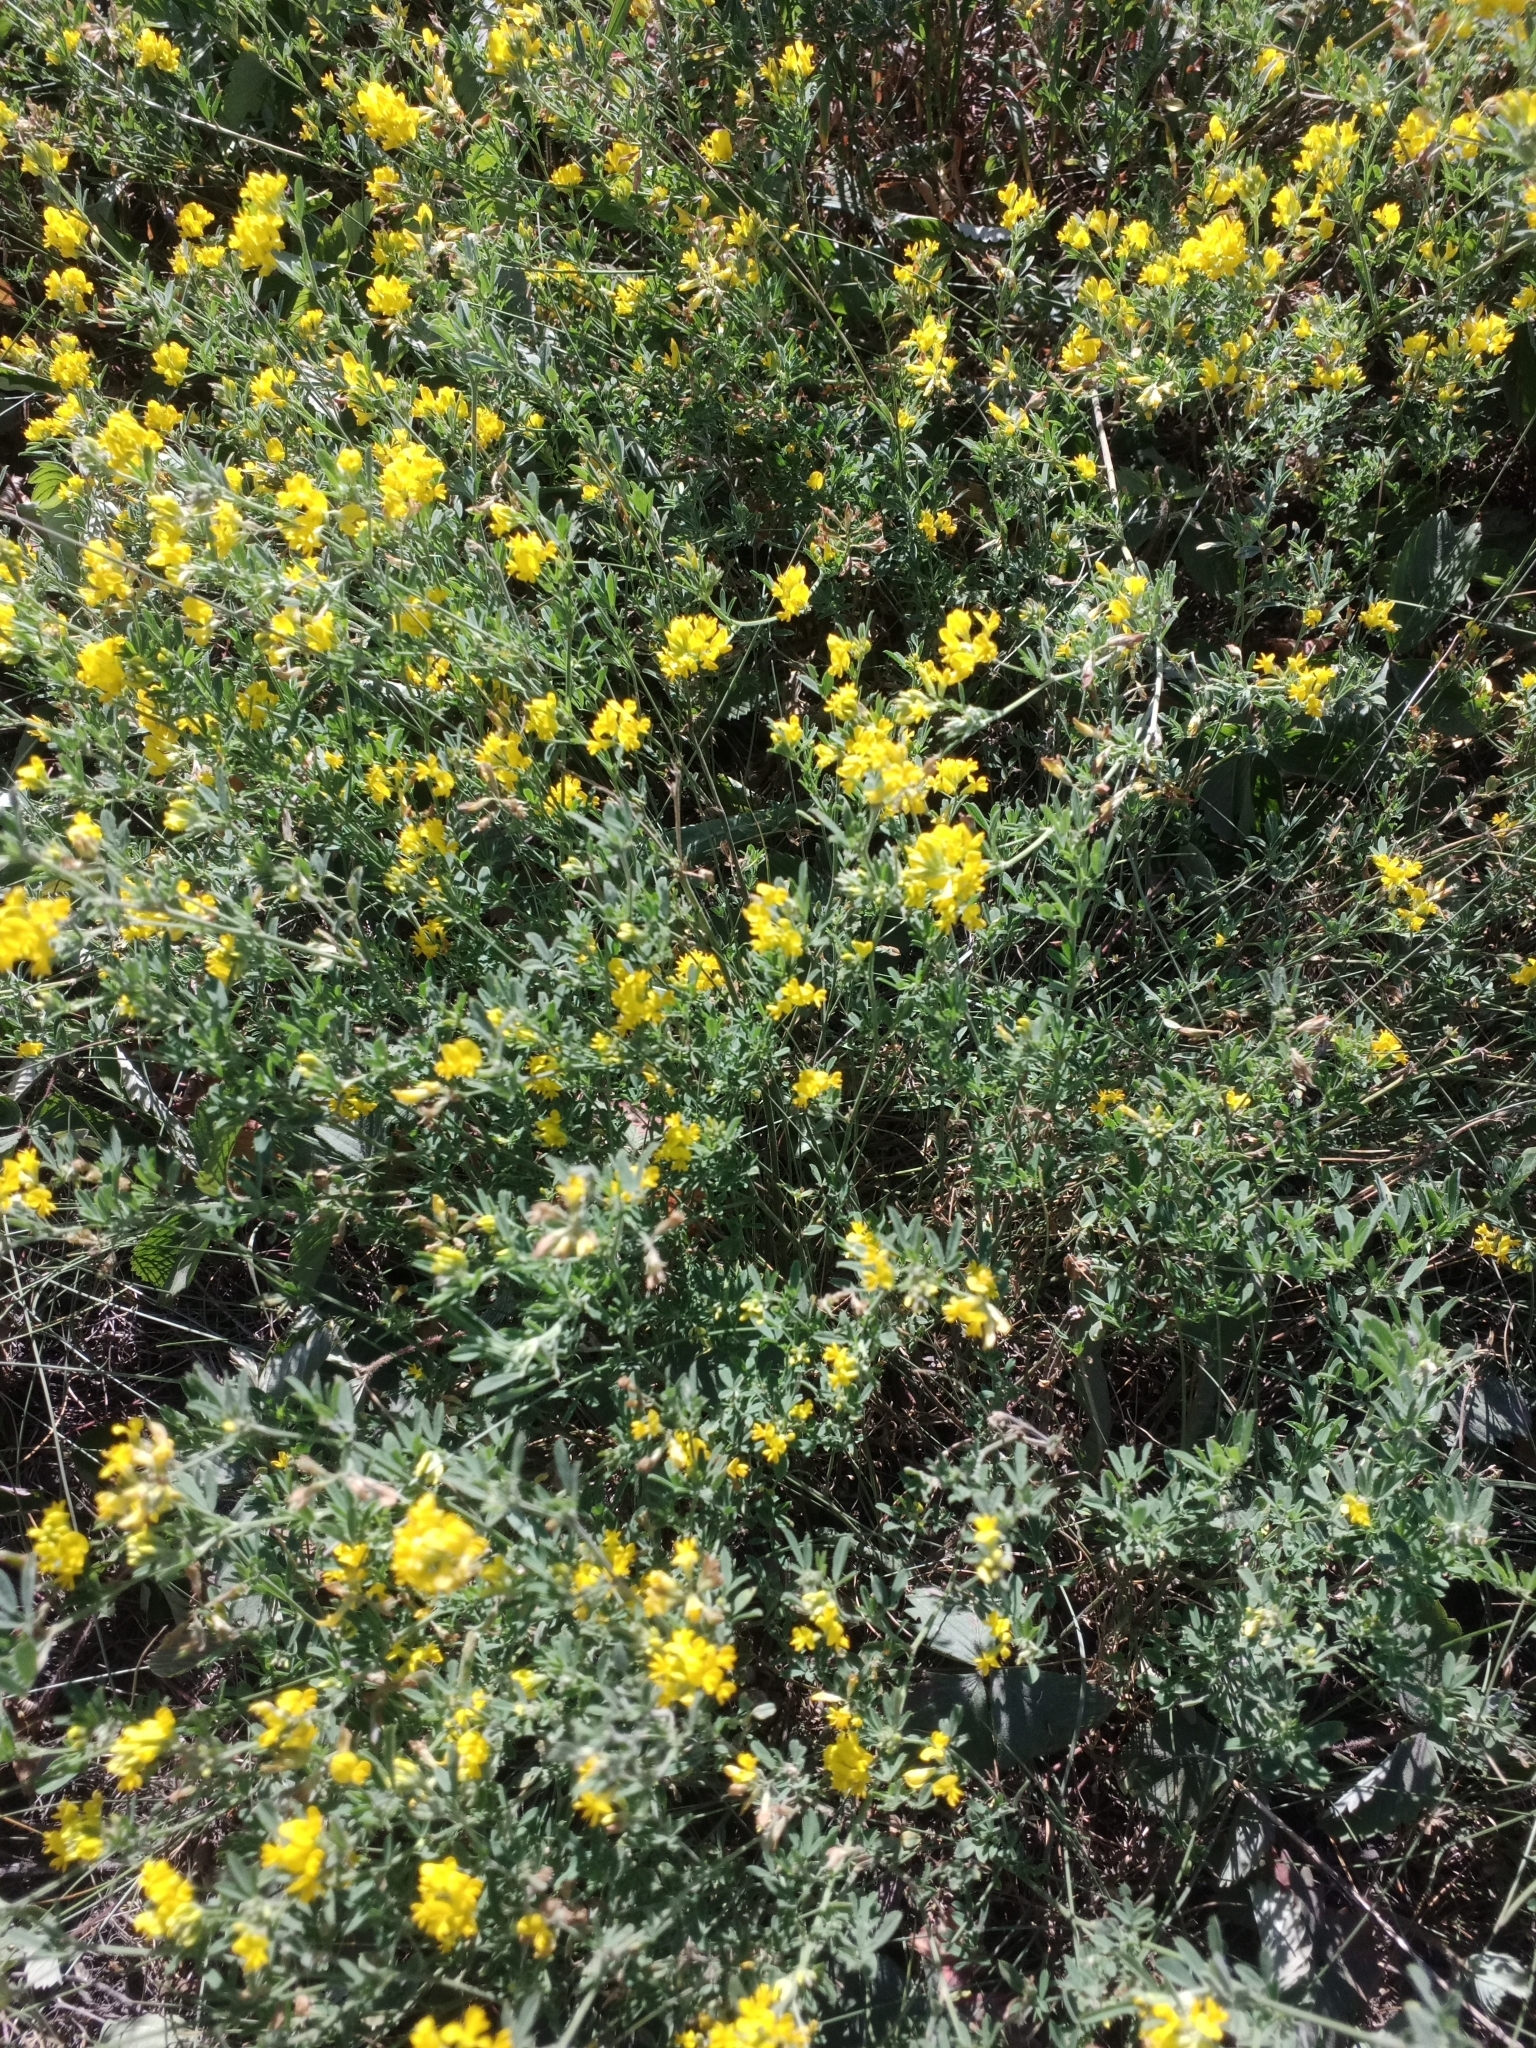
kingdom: Plantae
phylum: Tracheophyta
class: Magnoliopsida
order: Fabales
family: Fabaceae
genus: Medicago
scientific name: Medicago falcata
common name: Sickle medick
